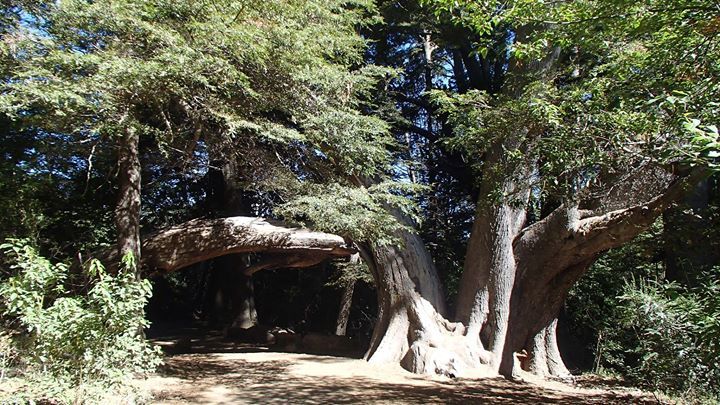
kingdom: Plantae
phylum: Tracheophyta
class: Magnoliopsida
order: Fagales
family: Nothofagaceae
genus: Nothofagus
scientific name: Nothofagus dombeyi
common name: Coigue
